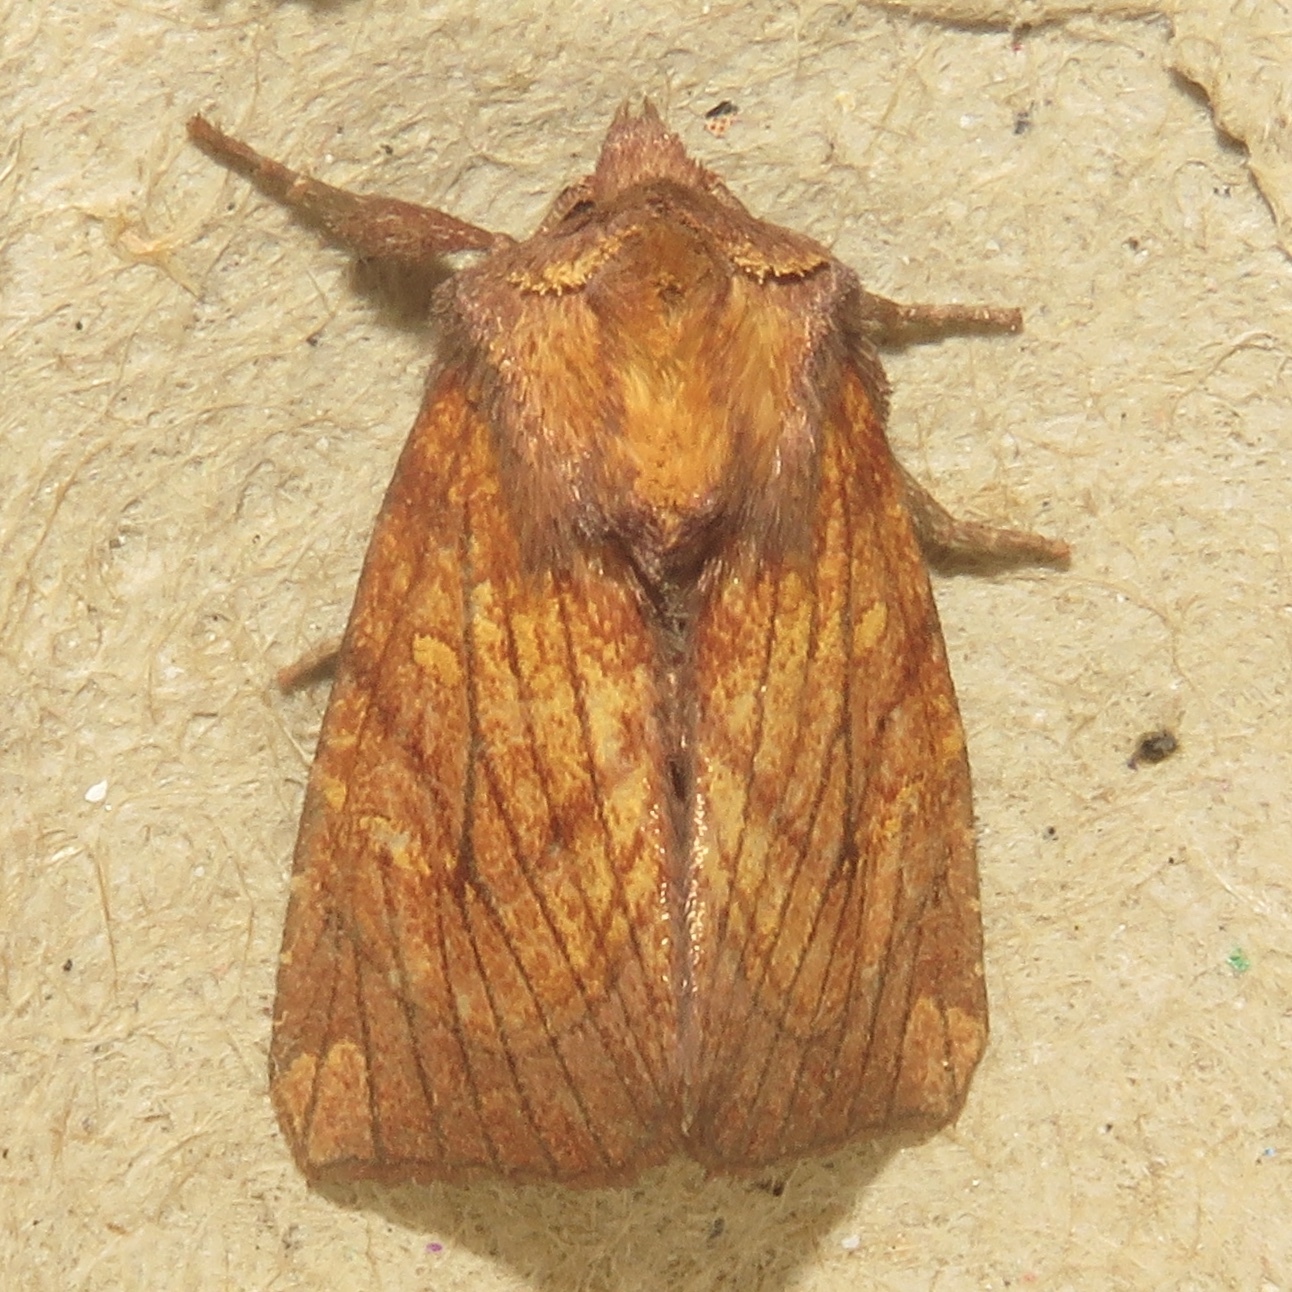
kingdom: Animalia
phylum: Arthropoda
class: Insecta
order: Lepidoptera
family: Noctuidae
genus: Papaipema
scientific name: Papaipema inquaesita
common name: Sensitive fern borer moth
